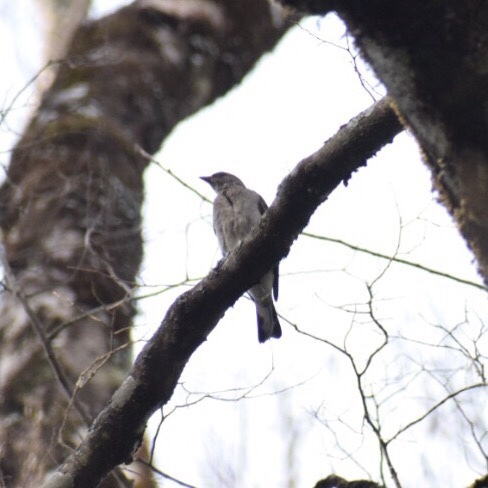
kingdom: Animalia
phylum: Chordata
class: Aves
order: Piciformes
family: Indicatoridae
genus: Indicator
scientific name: Indicator variegatus
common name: Scaly-throated honeyguide
